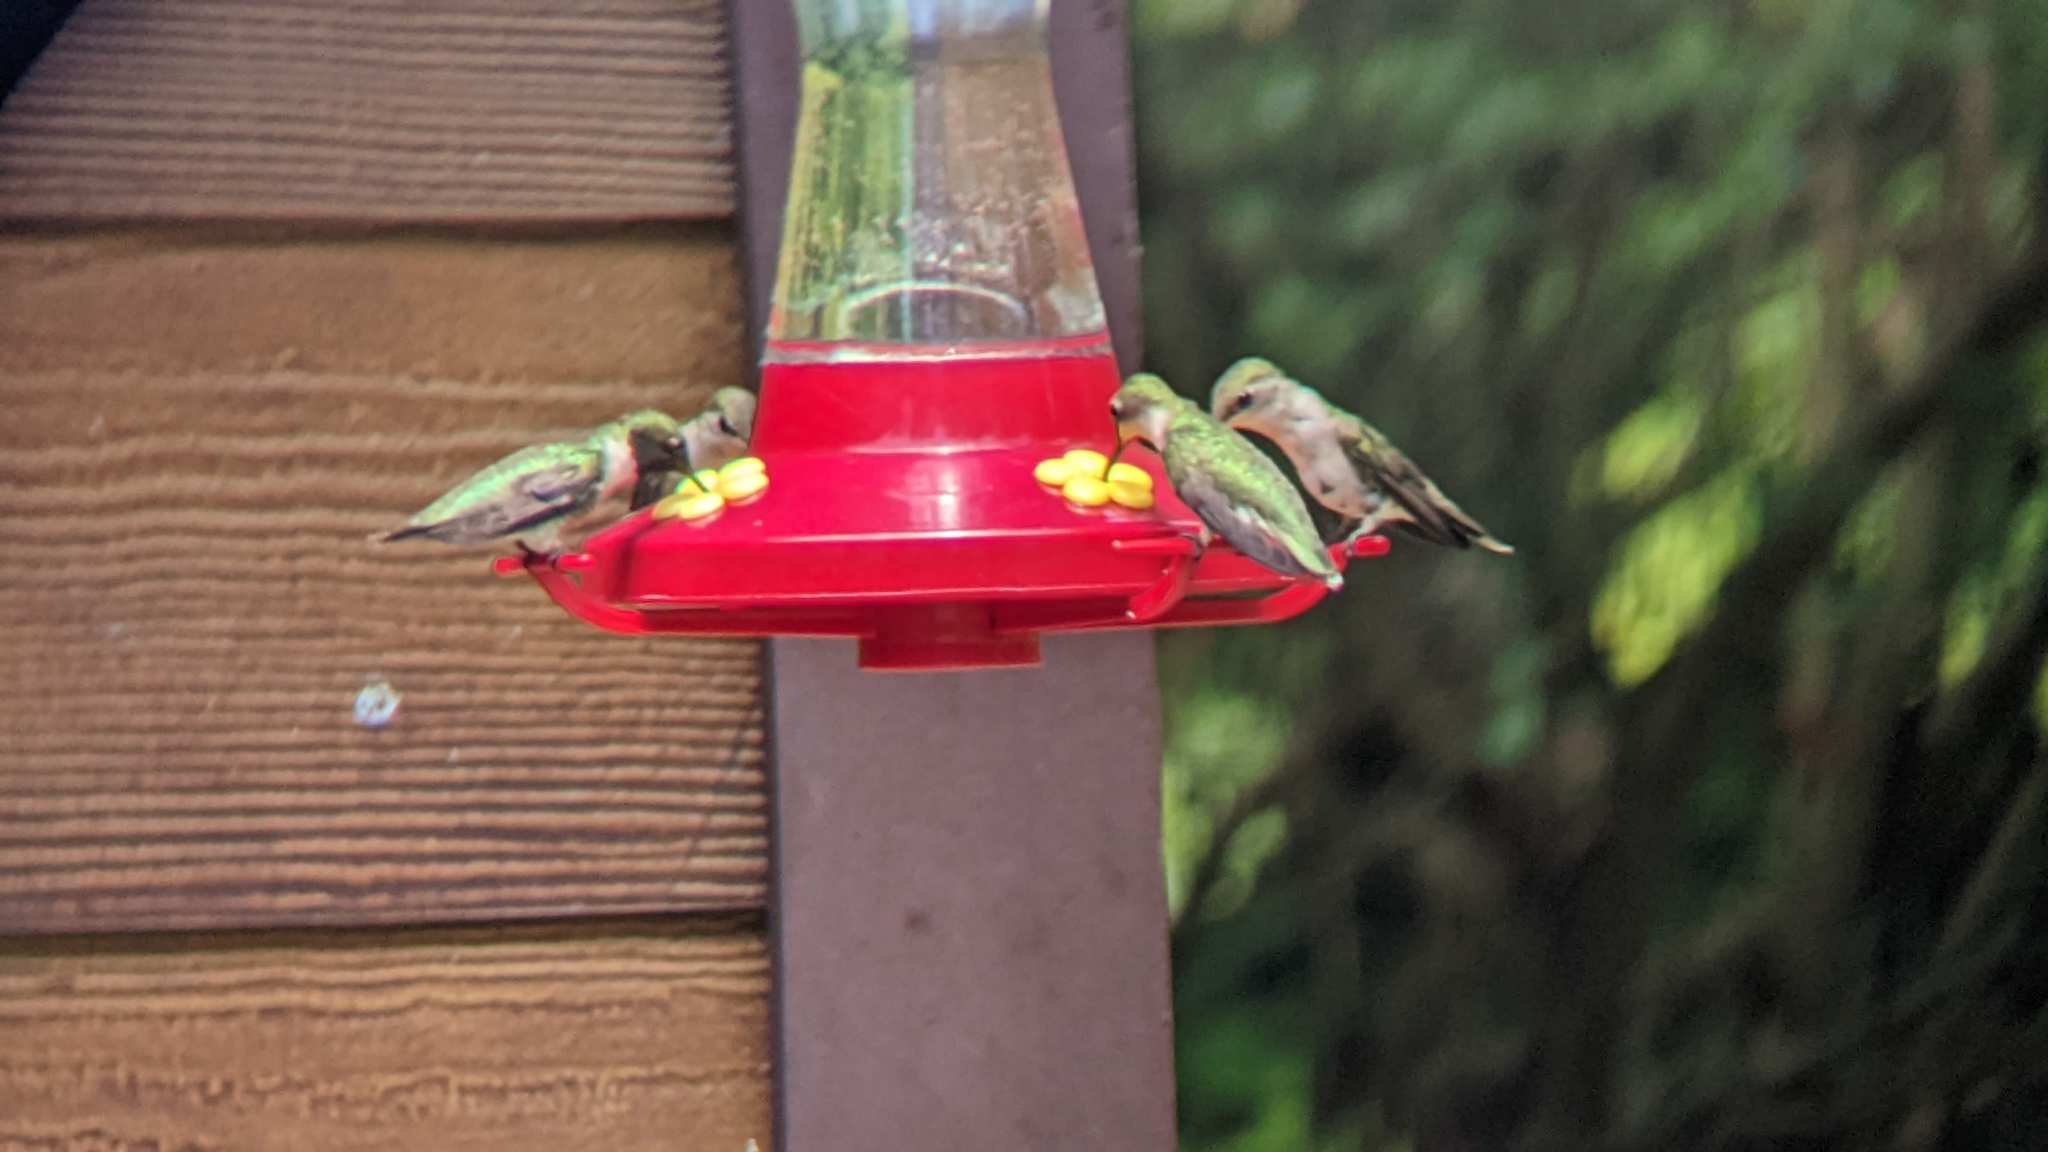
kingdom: Animalia
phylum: Chordata
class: Aves
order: Apodiformes
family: Trochilidae
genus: Archilochus
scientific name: Archilochus colubris
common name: Ruby-throated hummingbird
